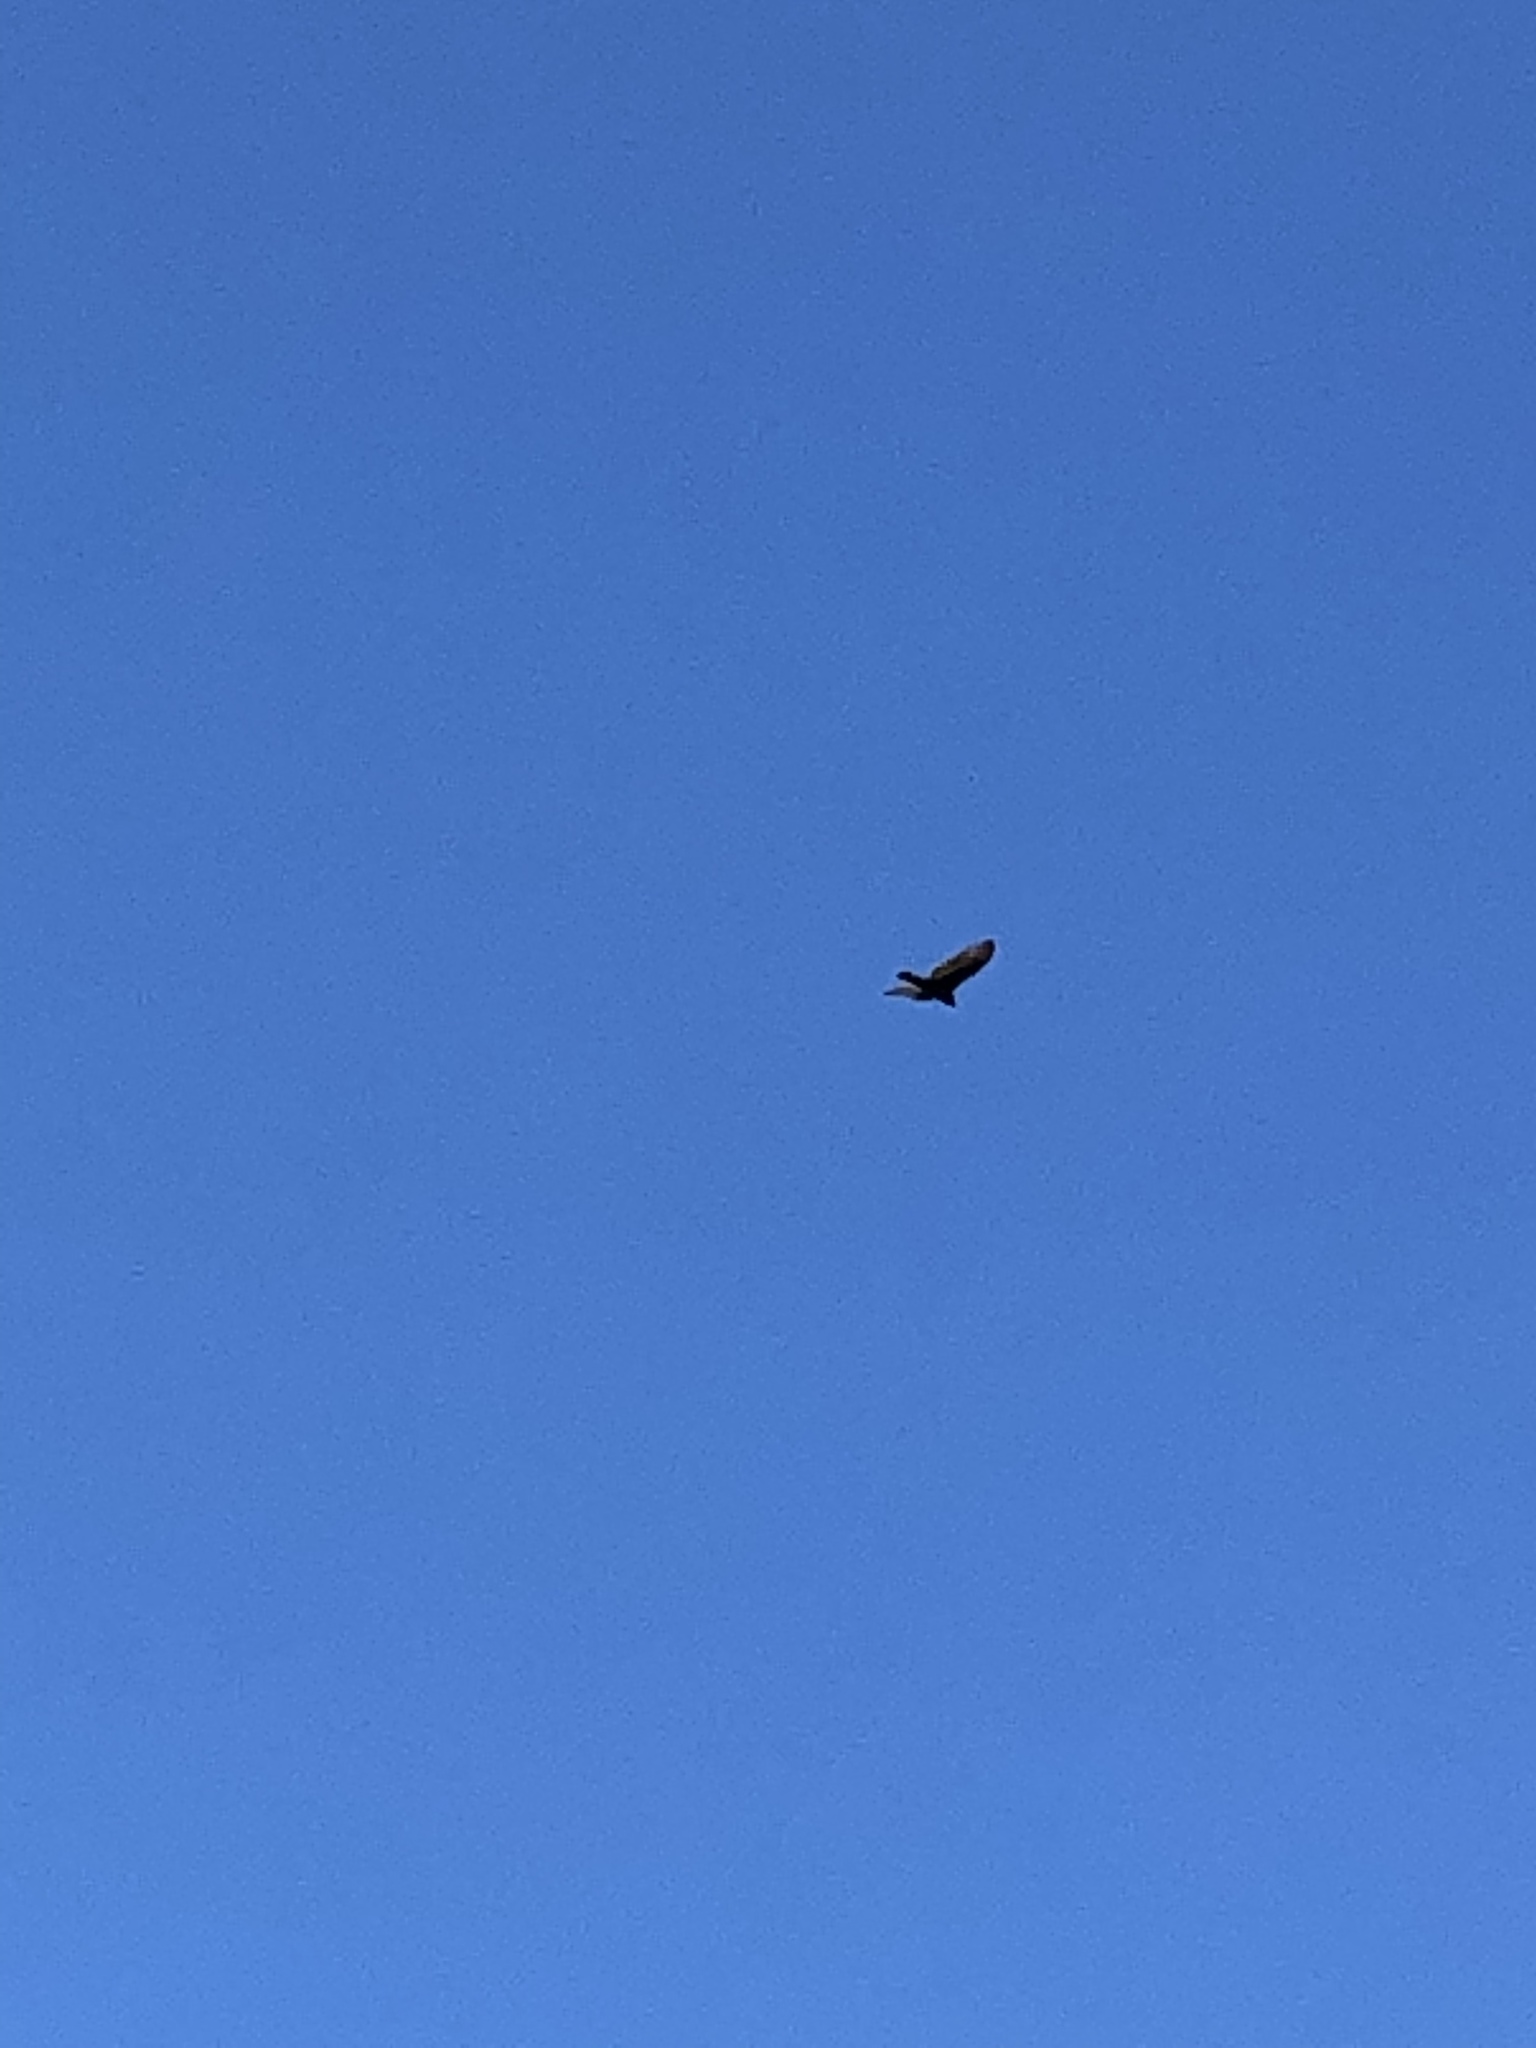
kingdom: Animalia
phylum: Chordata
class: Aves
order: Accipitriformes
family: Cathartidae
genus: Cathartes
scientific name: Cathartes aura
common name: Turkey vulture
